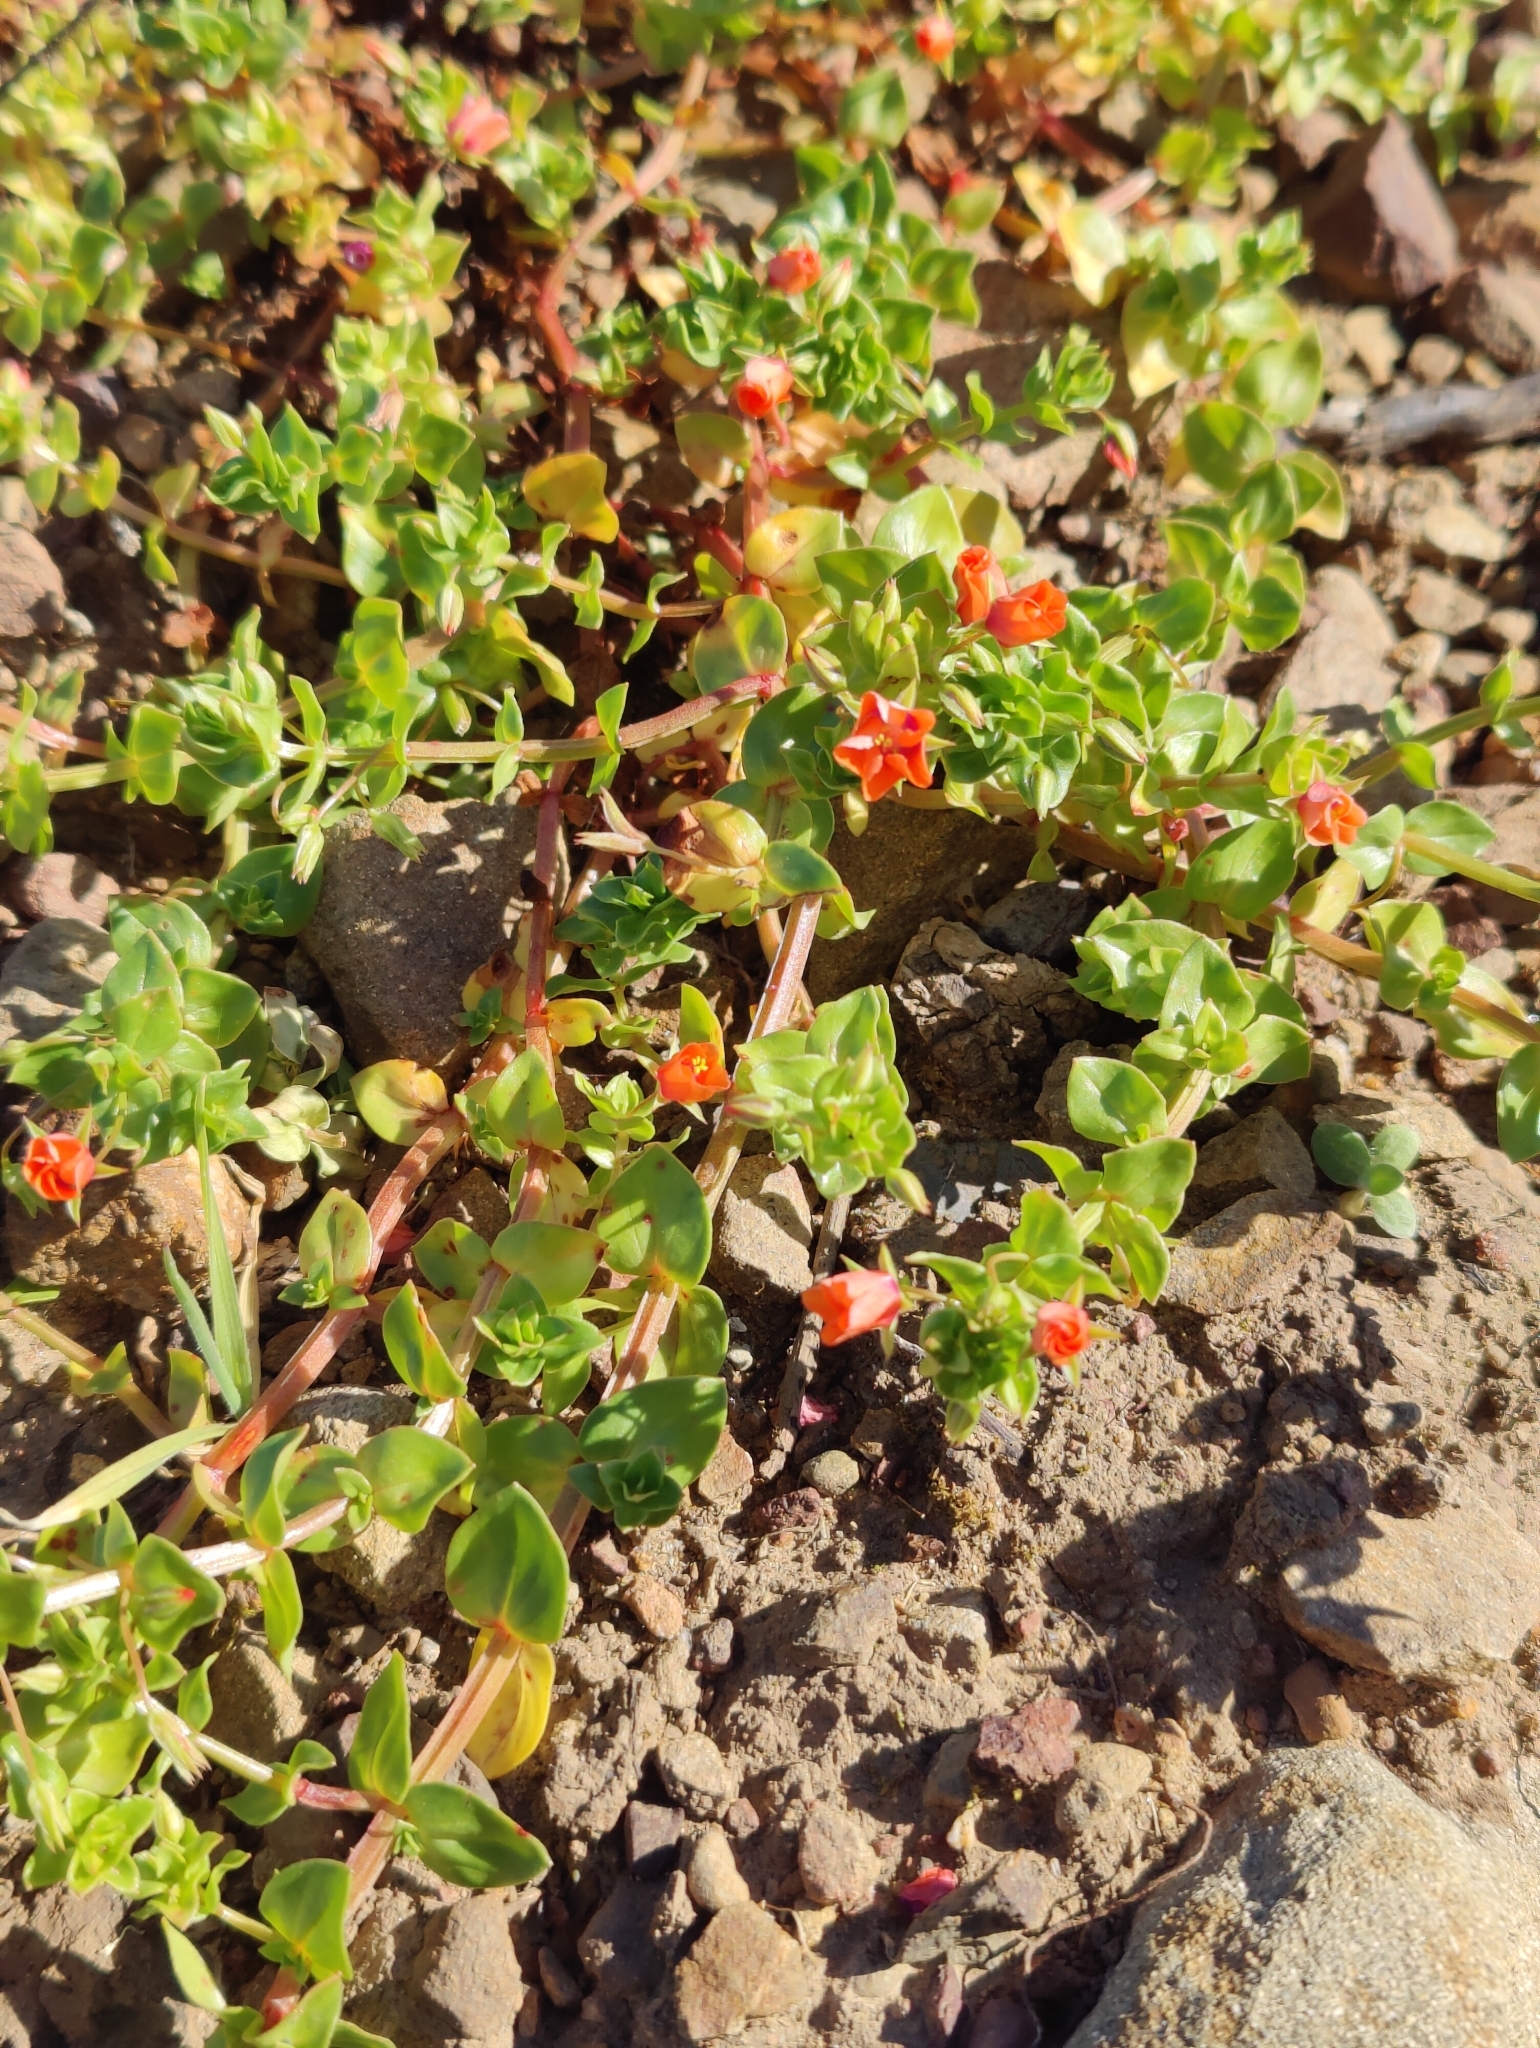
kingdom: Plantae
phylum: Tracheophyta
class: Magnoliopsida
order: Ericales
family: Primulaceae
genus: Lysimachia
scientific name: Lysimachia arvensis
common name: Scarlet pimpernel
